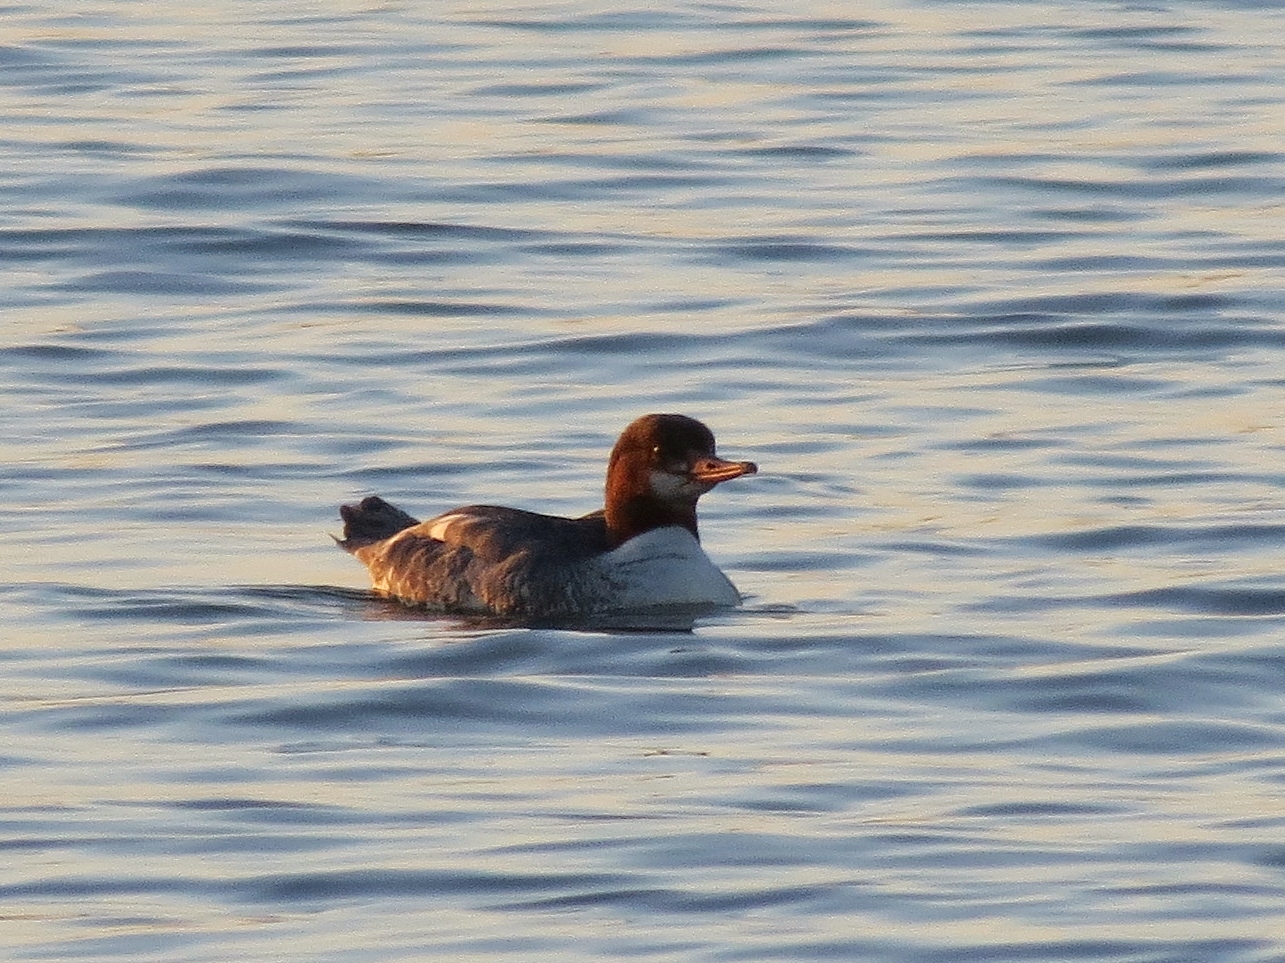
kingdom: Animalia
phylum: Chordata
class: Aves
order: Anseriformes
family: Anatidae
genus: Mergus
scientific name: Mergus merganser
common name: Common merganser
